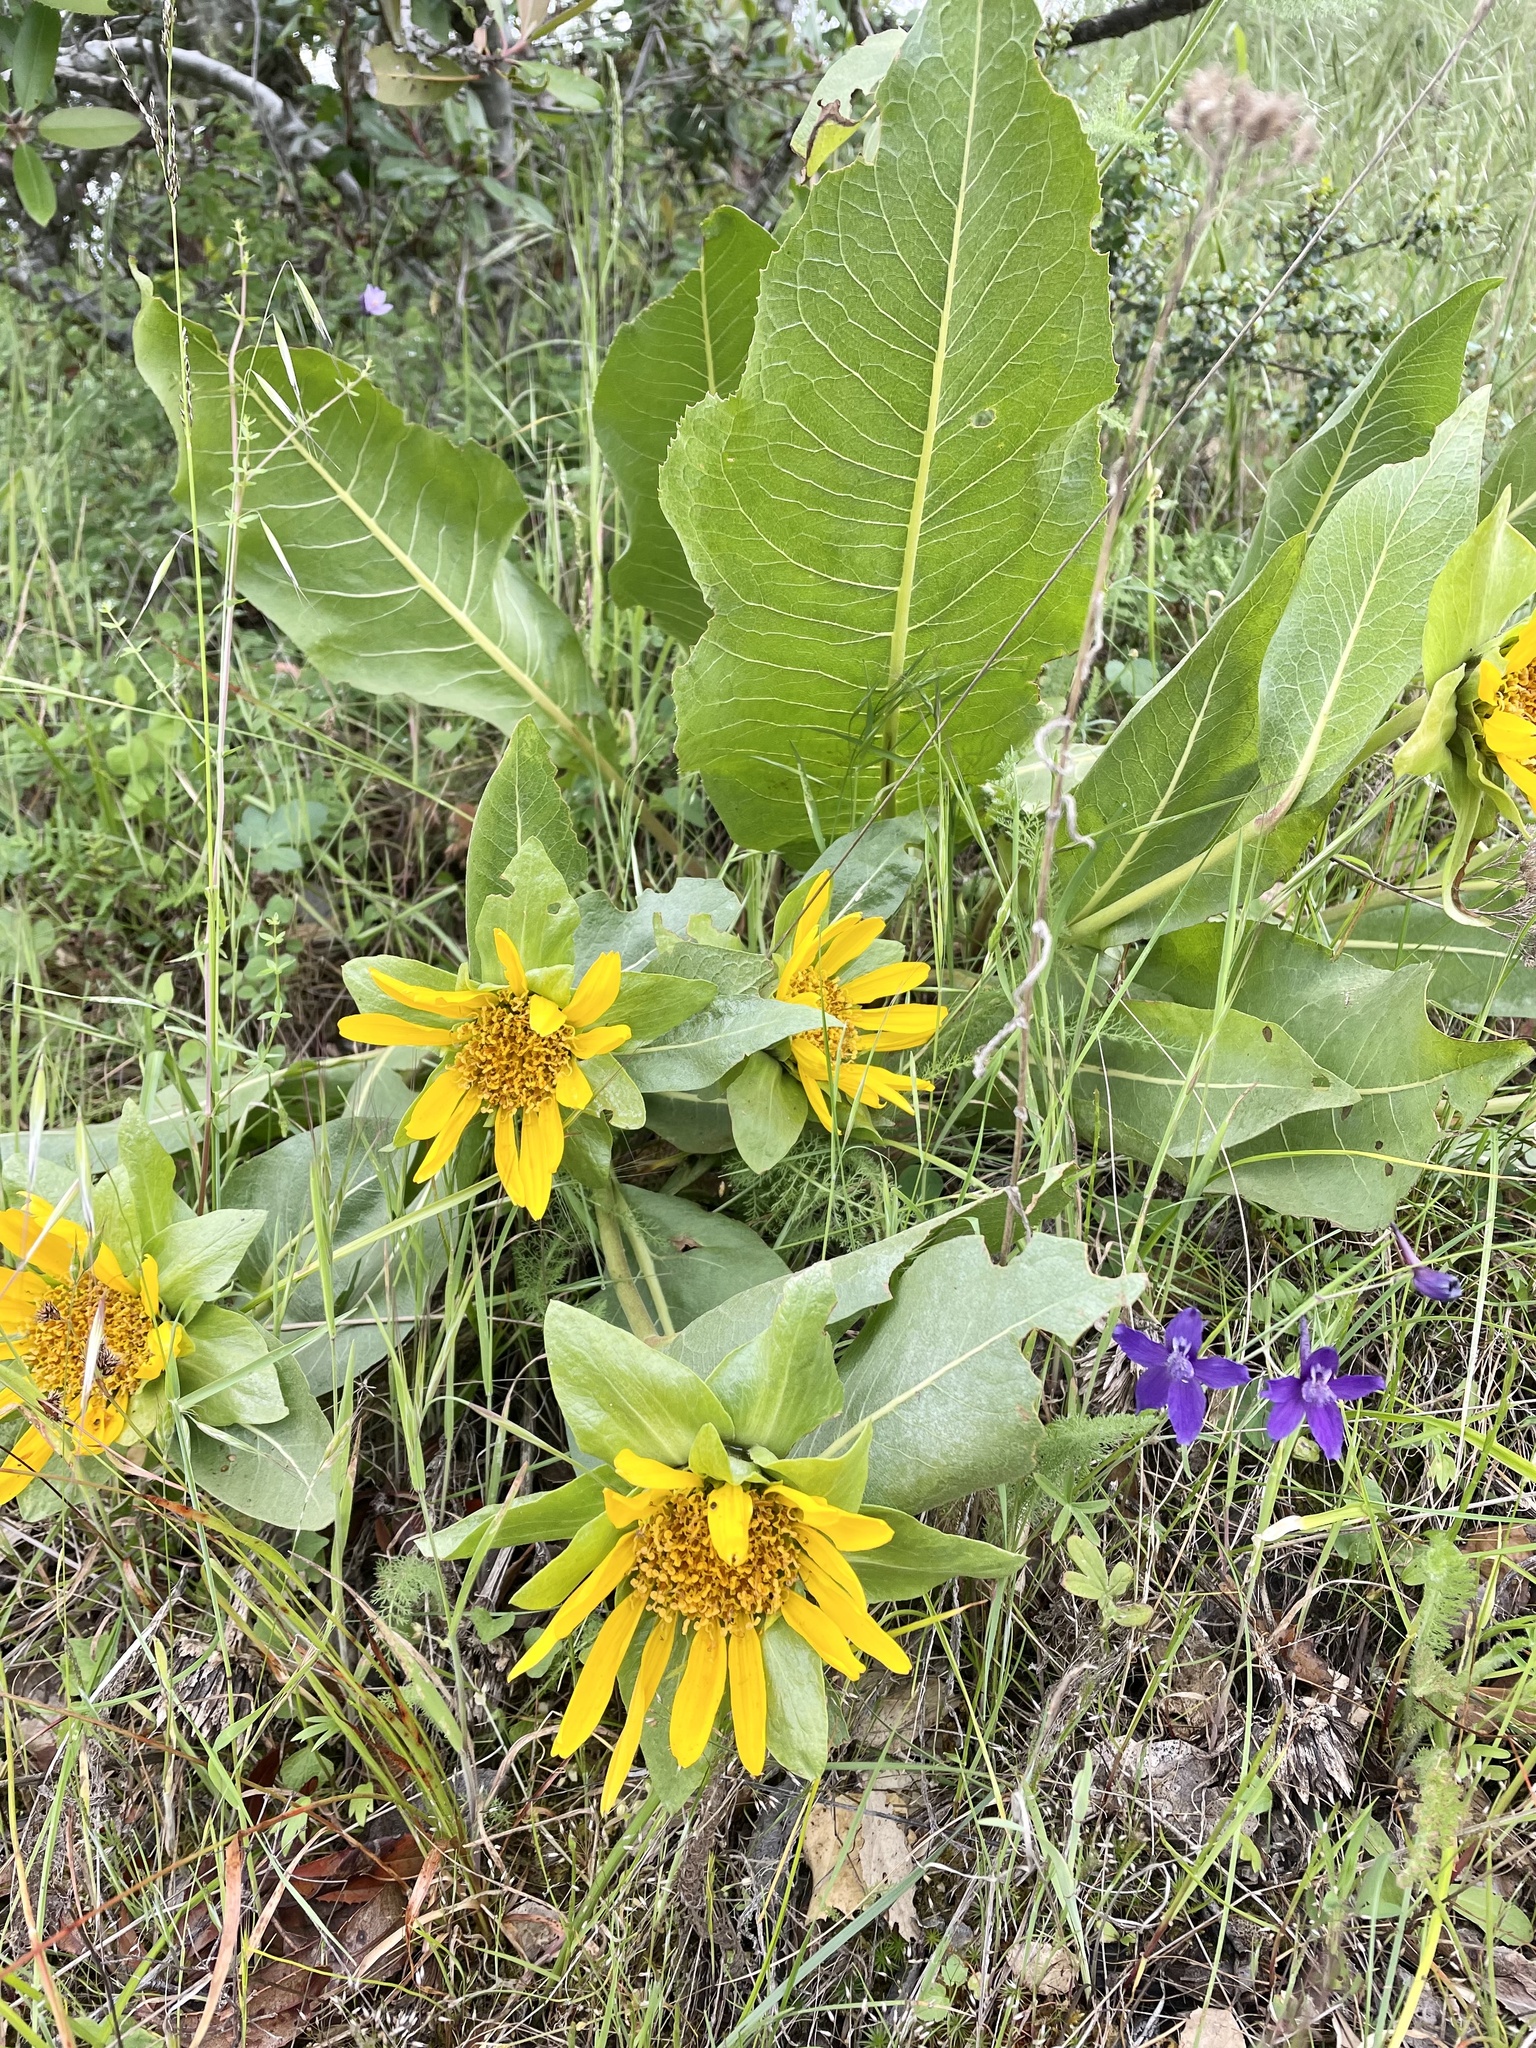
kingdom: Plantae
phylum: Tracheophyta
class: Magnoliopsida
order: Asterales
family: Asteraceae
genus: Wyethia
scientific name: Wyethia glabra
